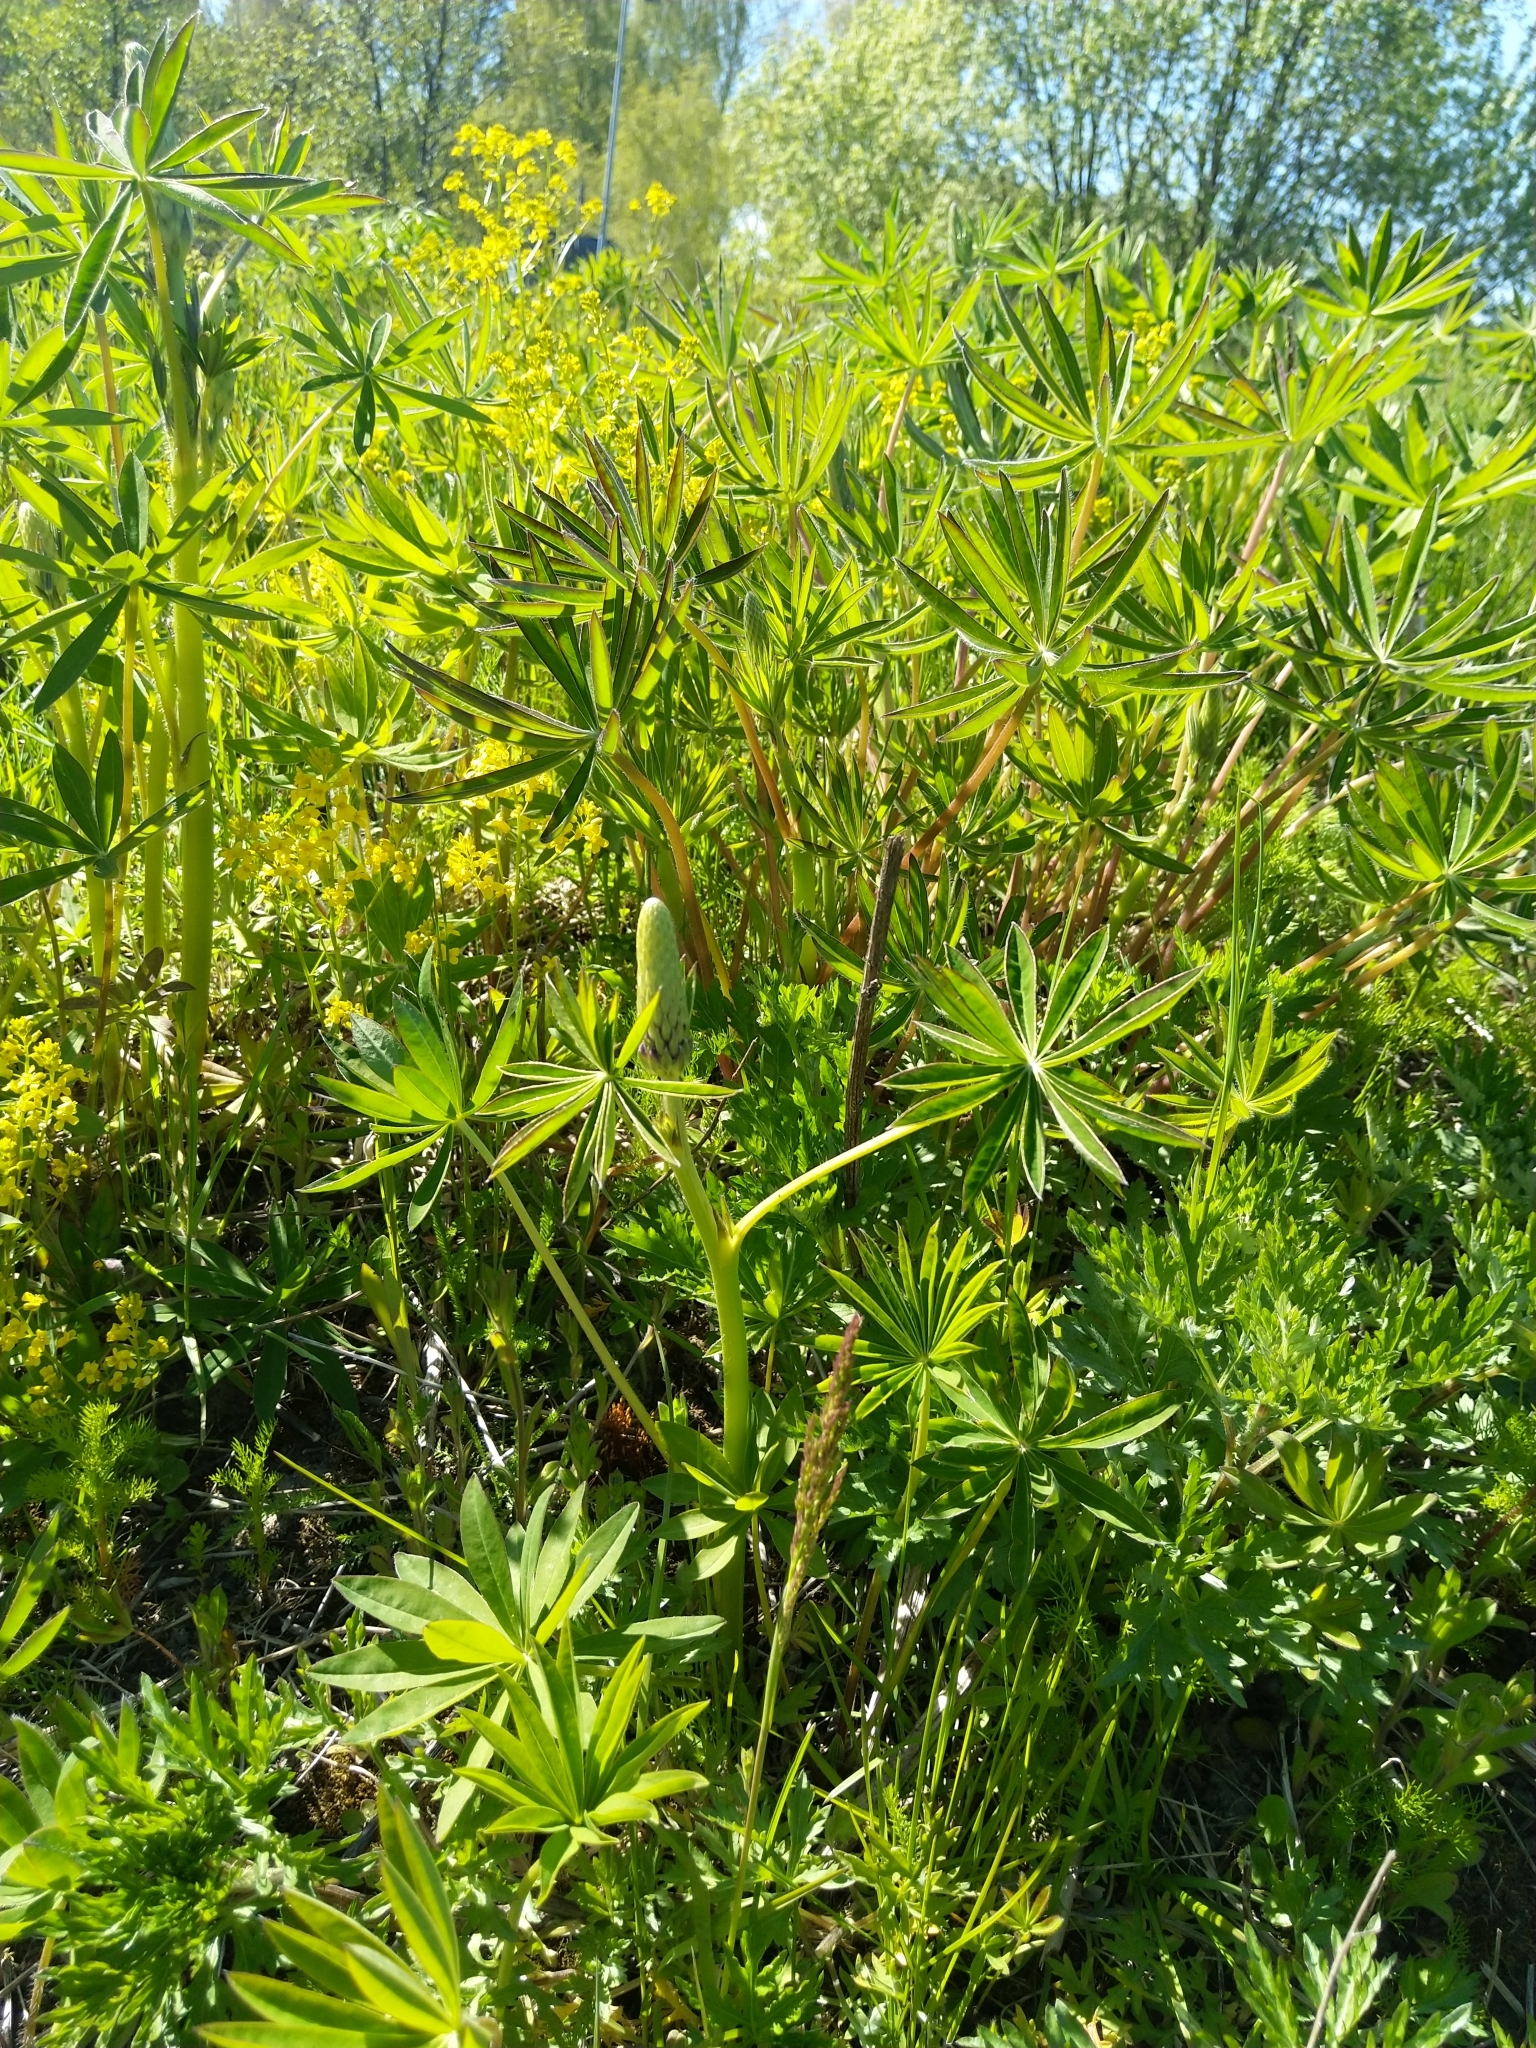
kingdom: Plantae
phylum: Tracheophyta
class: Magnoliopsida
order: Fabales
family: Fabaceae
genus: Lupinus
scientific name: Lupinus polyphyllus
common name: Garden lupin
